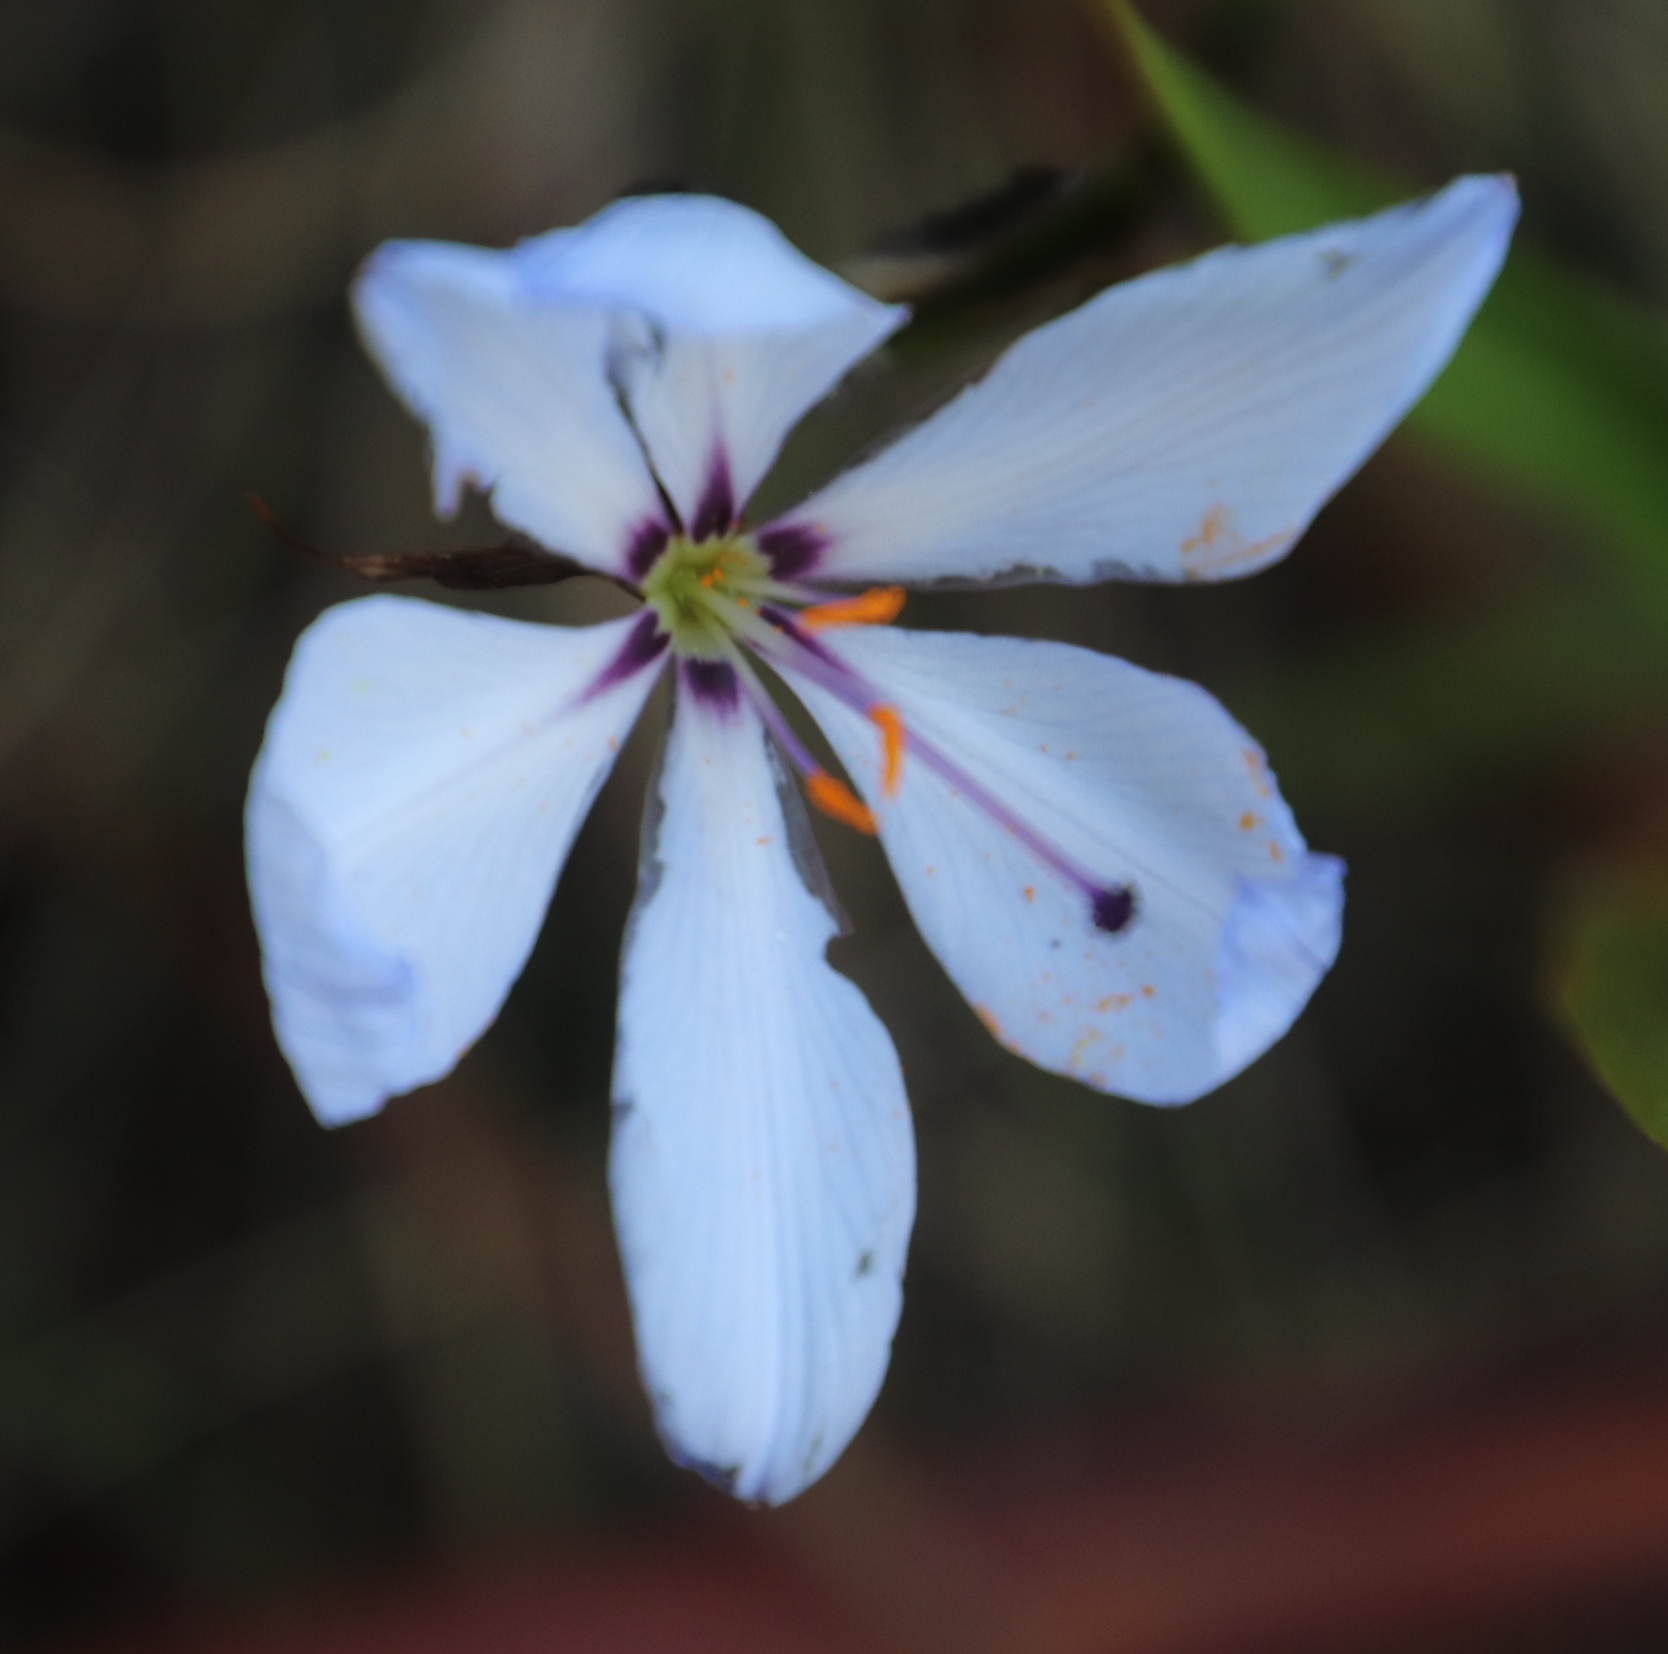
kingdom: Plantae
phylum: Tracheophyta
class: Liliopsida
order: Asparagales
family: Iridaceae
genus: Aristea
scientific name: Aristea spiralis
